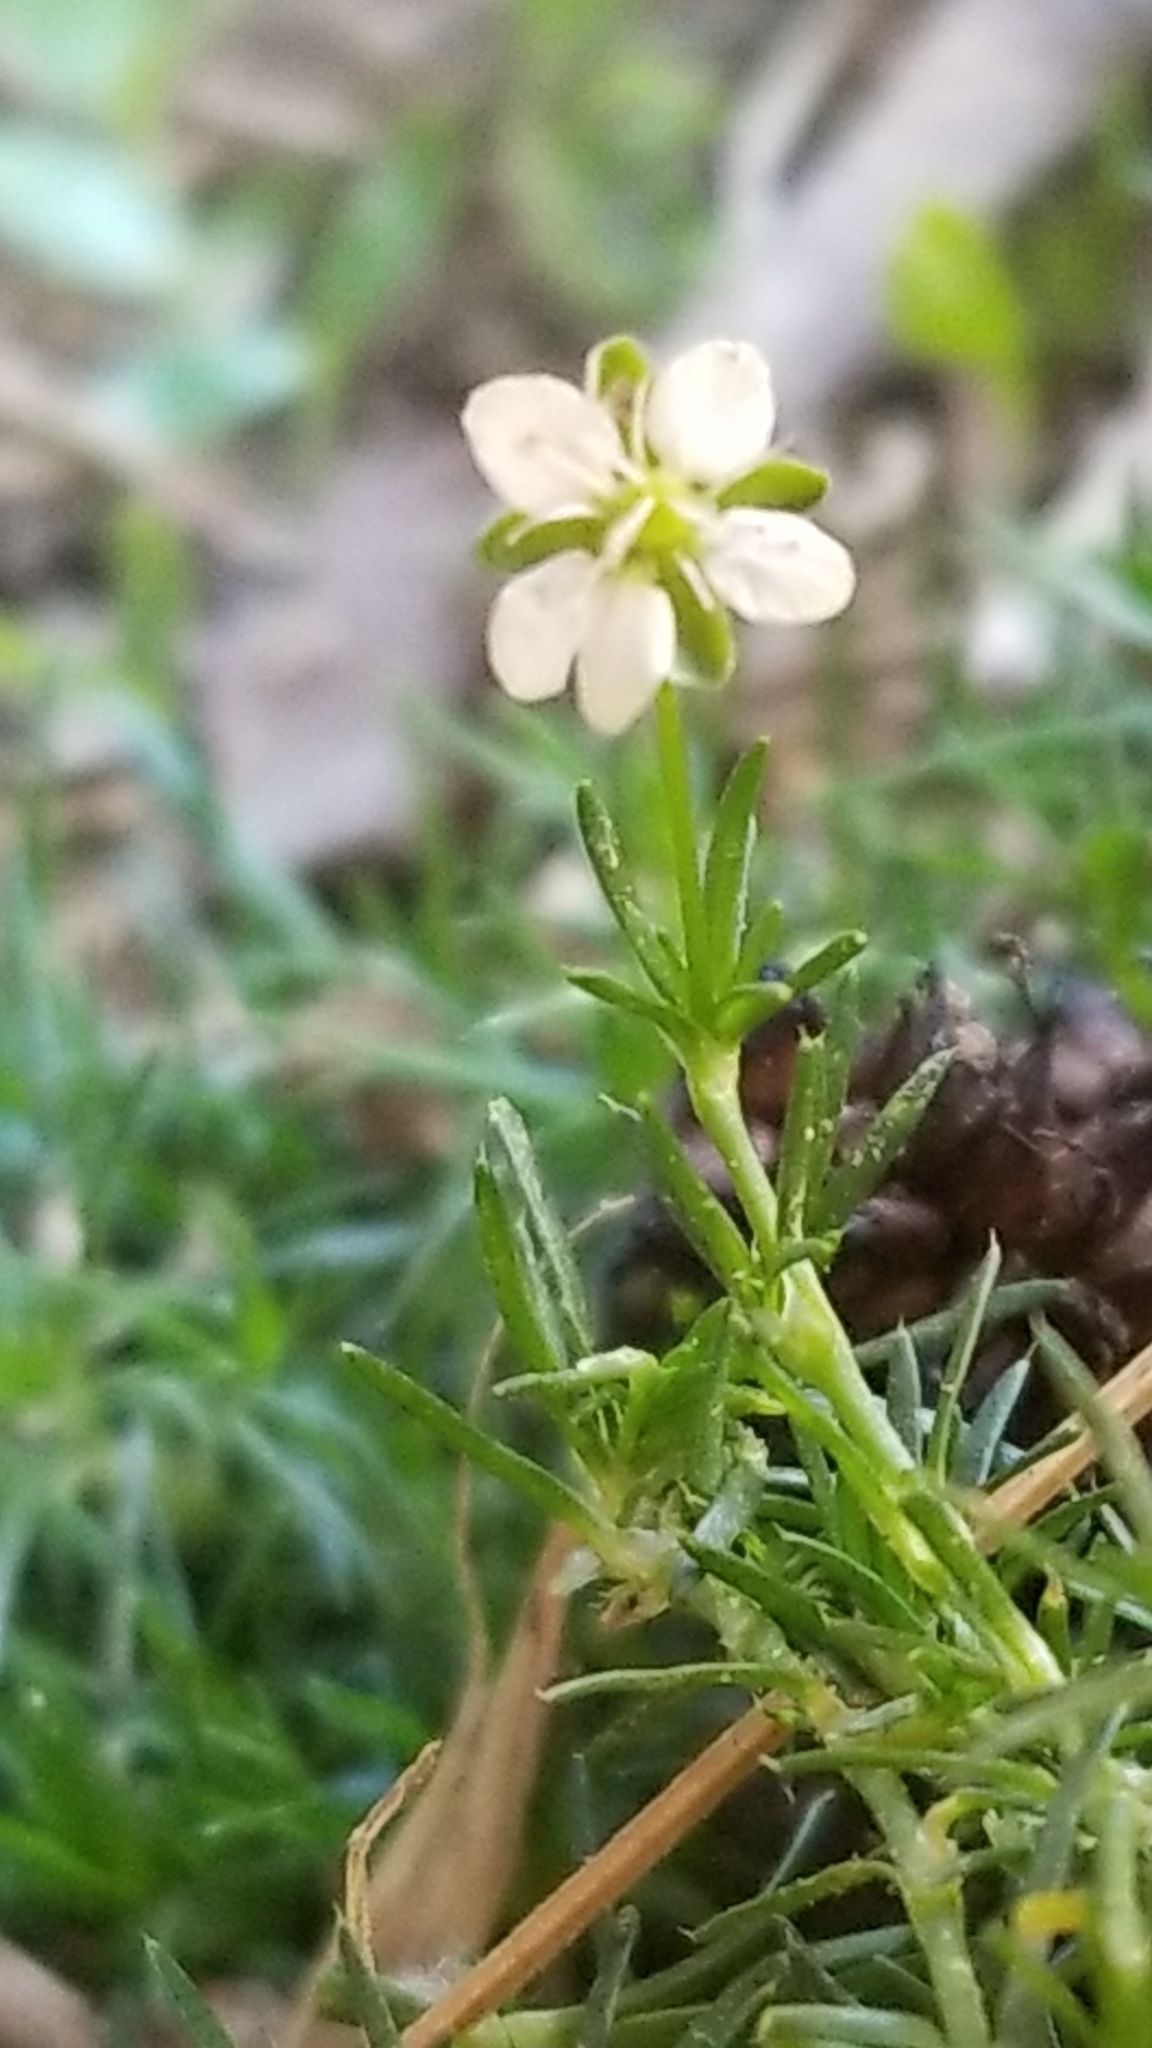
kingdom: Plantae
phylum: Tracheophyta
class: Magnoliopsida
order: Caryophyllales
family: Caryophyllaceae
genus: Sagina
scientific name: Sagina procumbens
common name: Procumbent pearlwort
